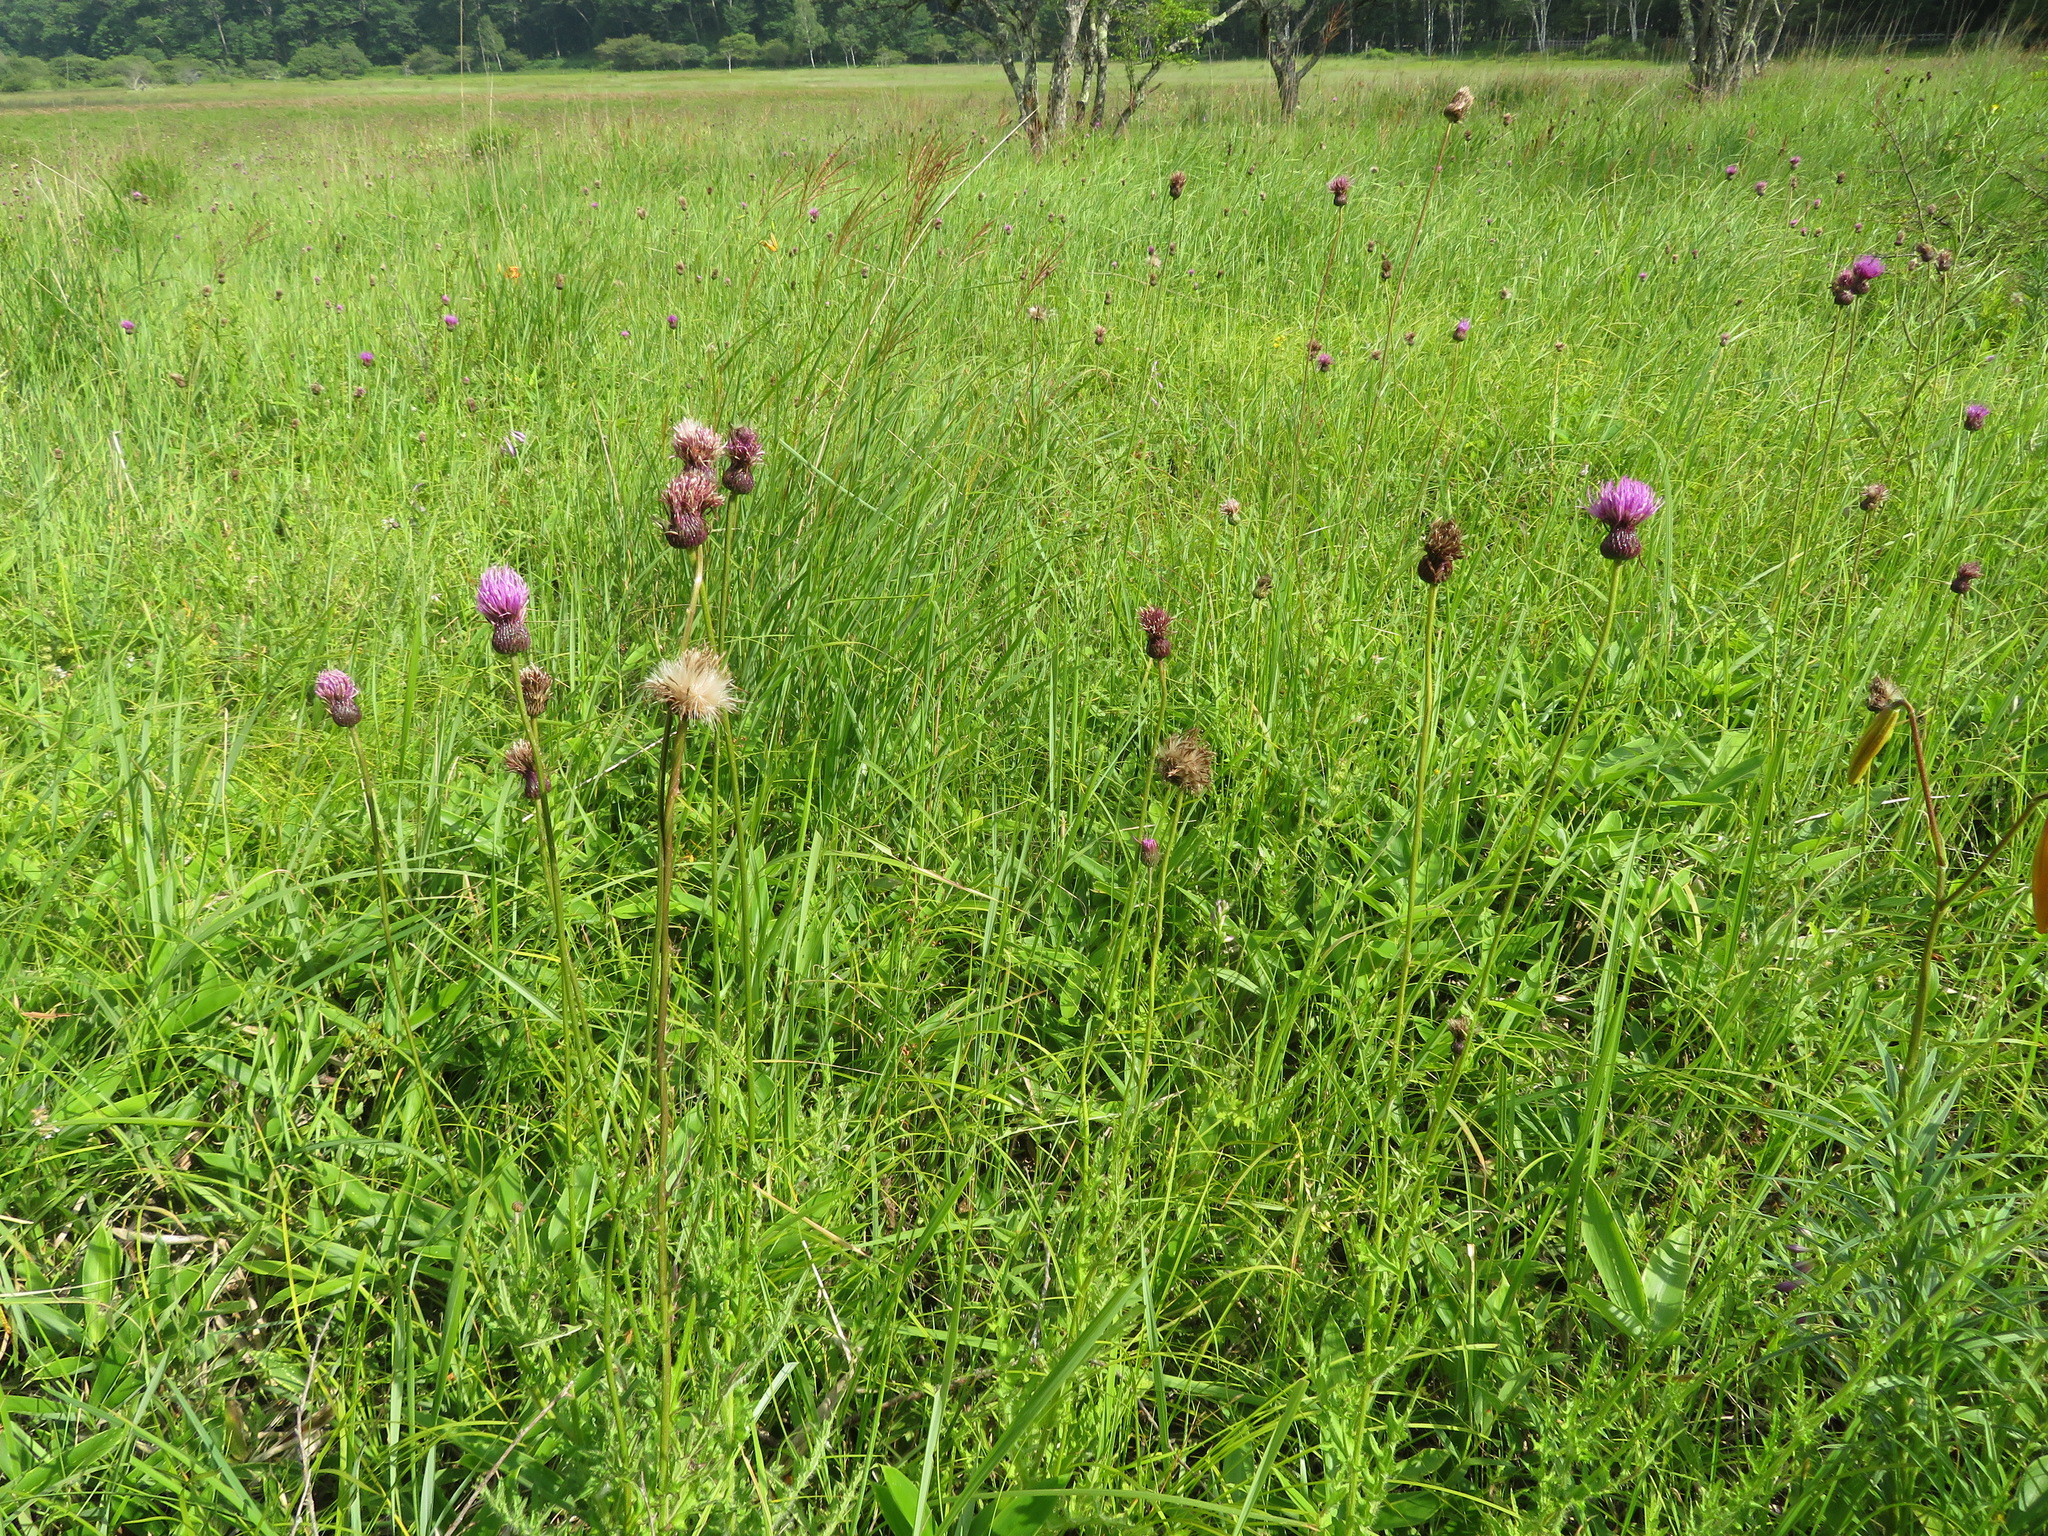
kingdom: Plantae
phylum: Tracheophyta
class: Magnoliopsida
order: Asterales
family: Asteraceae
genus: Cirsium
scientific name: Cirsium japonicum
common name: Japanese thistle
